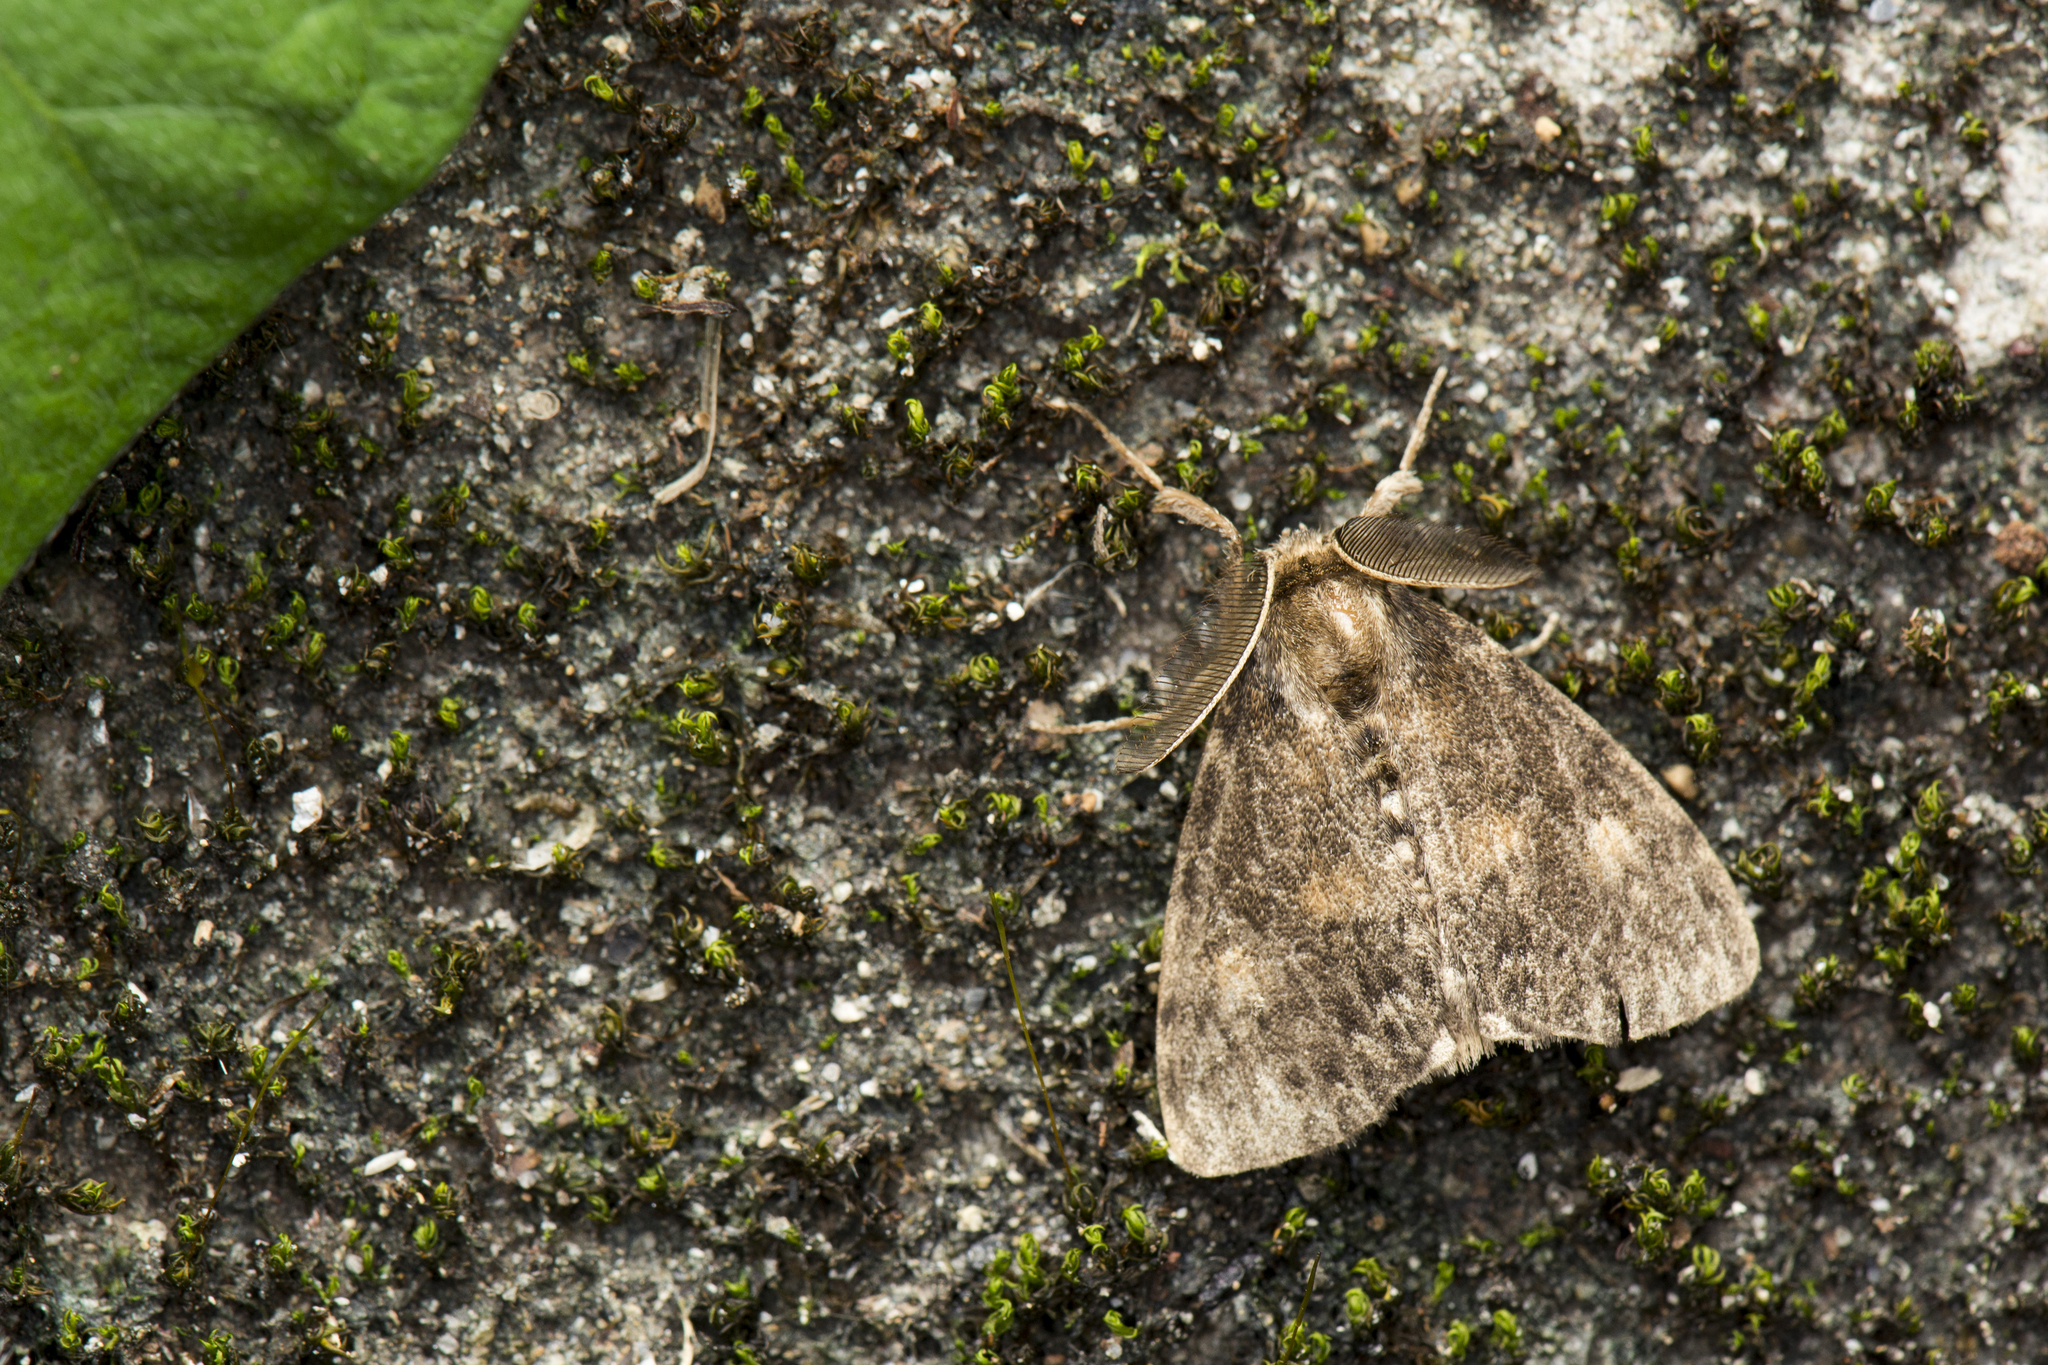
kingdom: Animalia
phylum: Arthropoda
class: Insecta
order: Lepidoptera
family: Erebidae
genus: Ilema
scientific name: Ilema kosemponica
